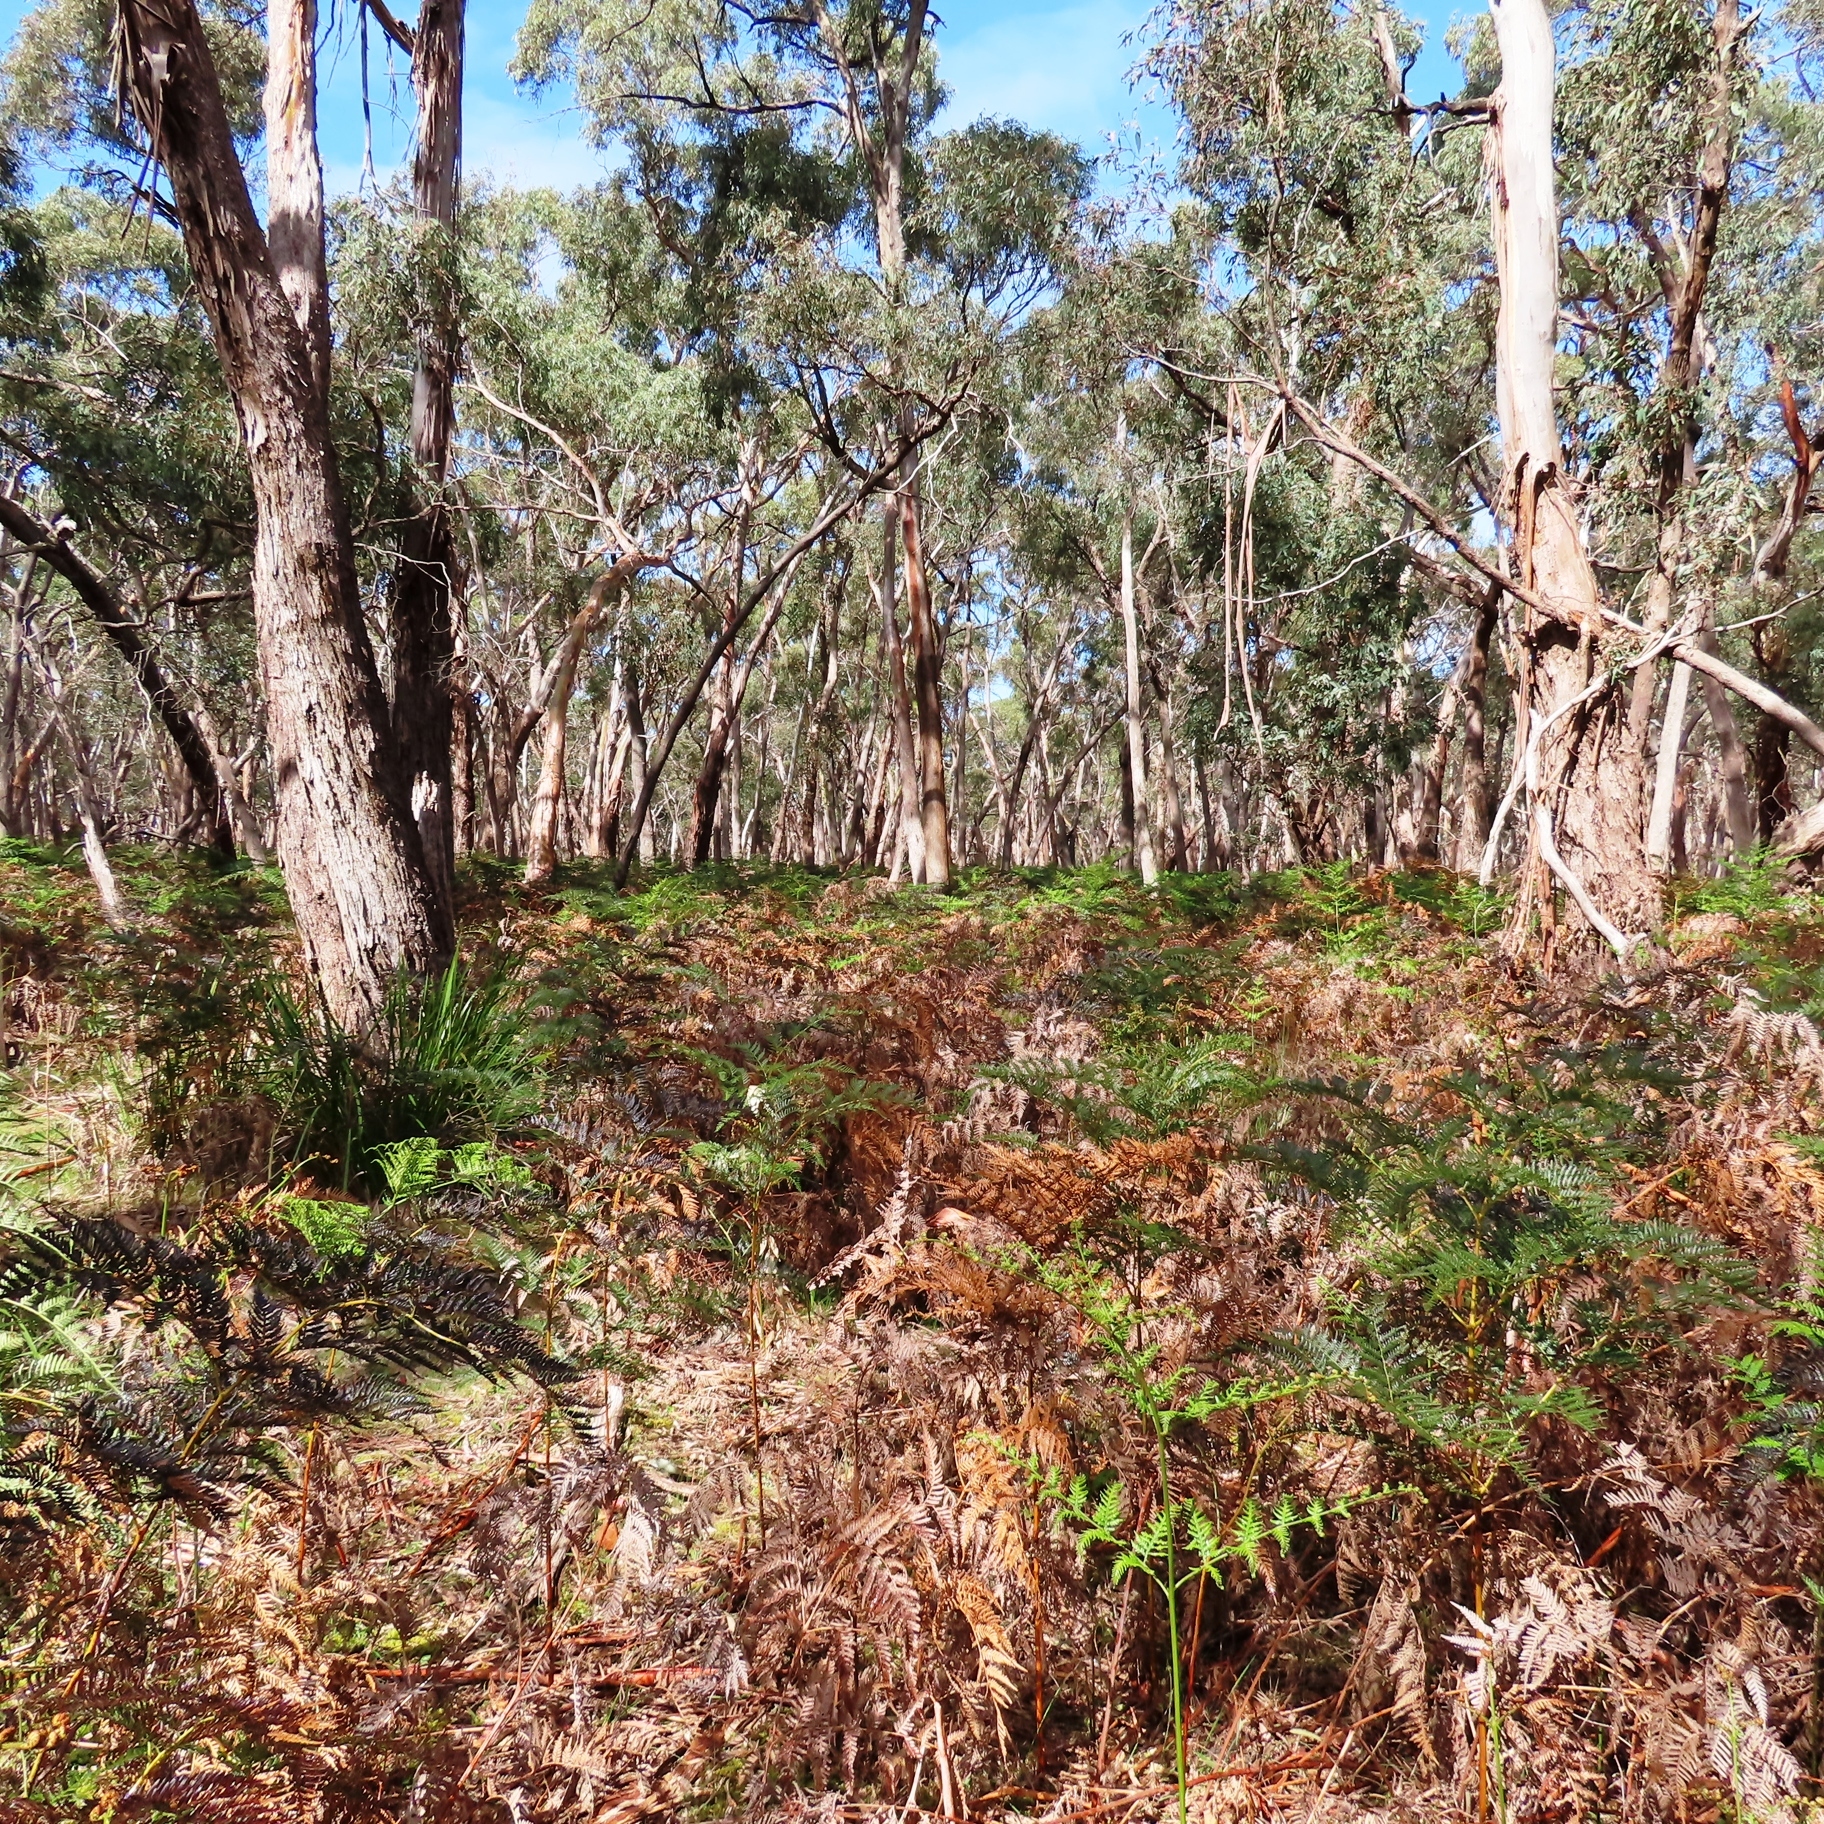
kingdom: Plantae
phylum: Tracheophyta
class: Polypodiopsida
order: Polypodiales
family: Dennstaedtiaceae
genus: Pteridium
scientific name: Pteridium esculentum
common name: Bracken fern
